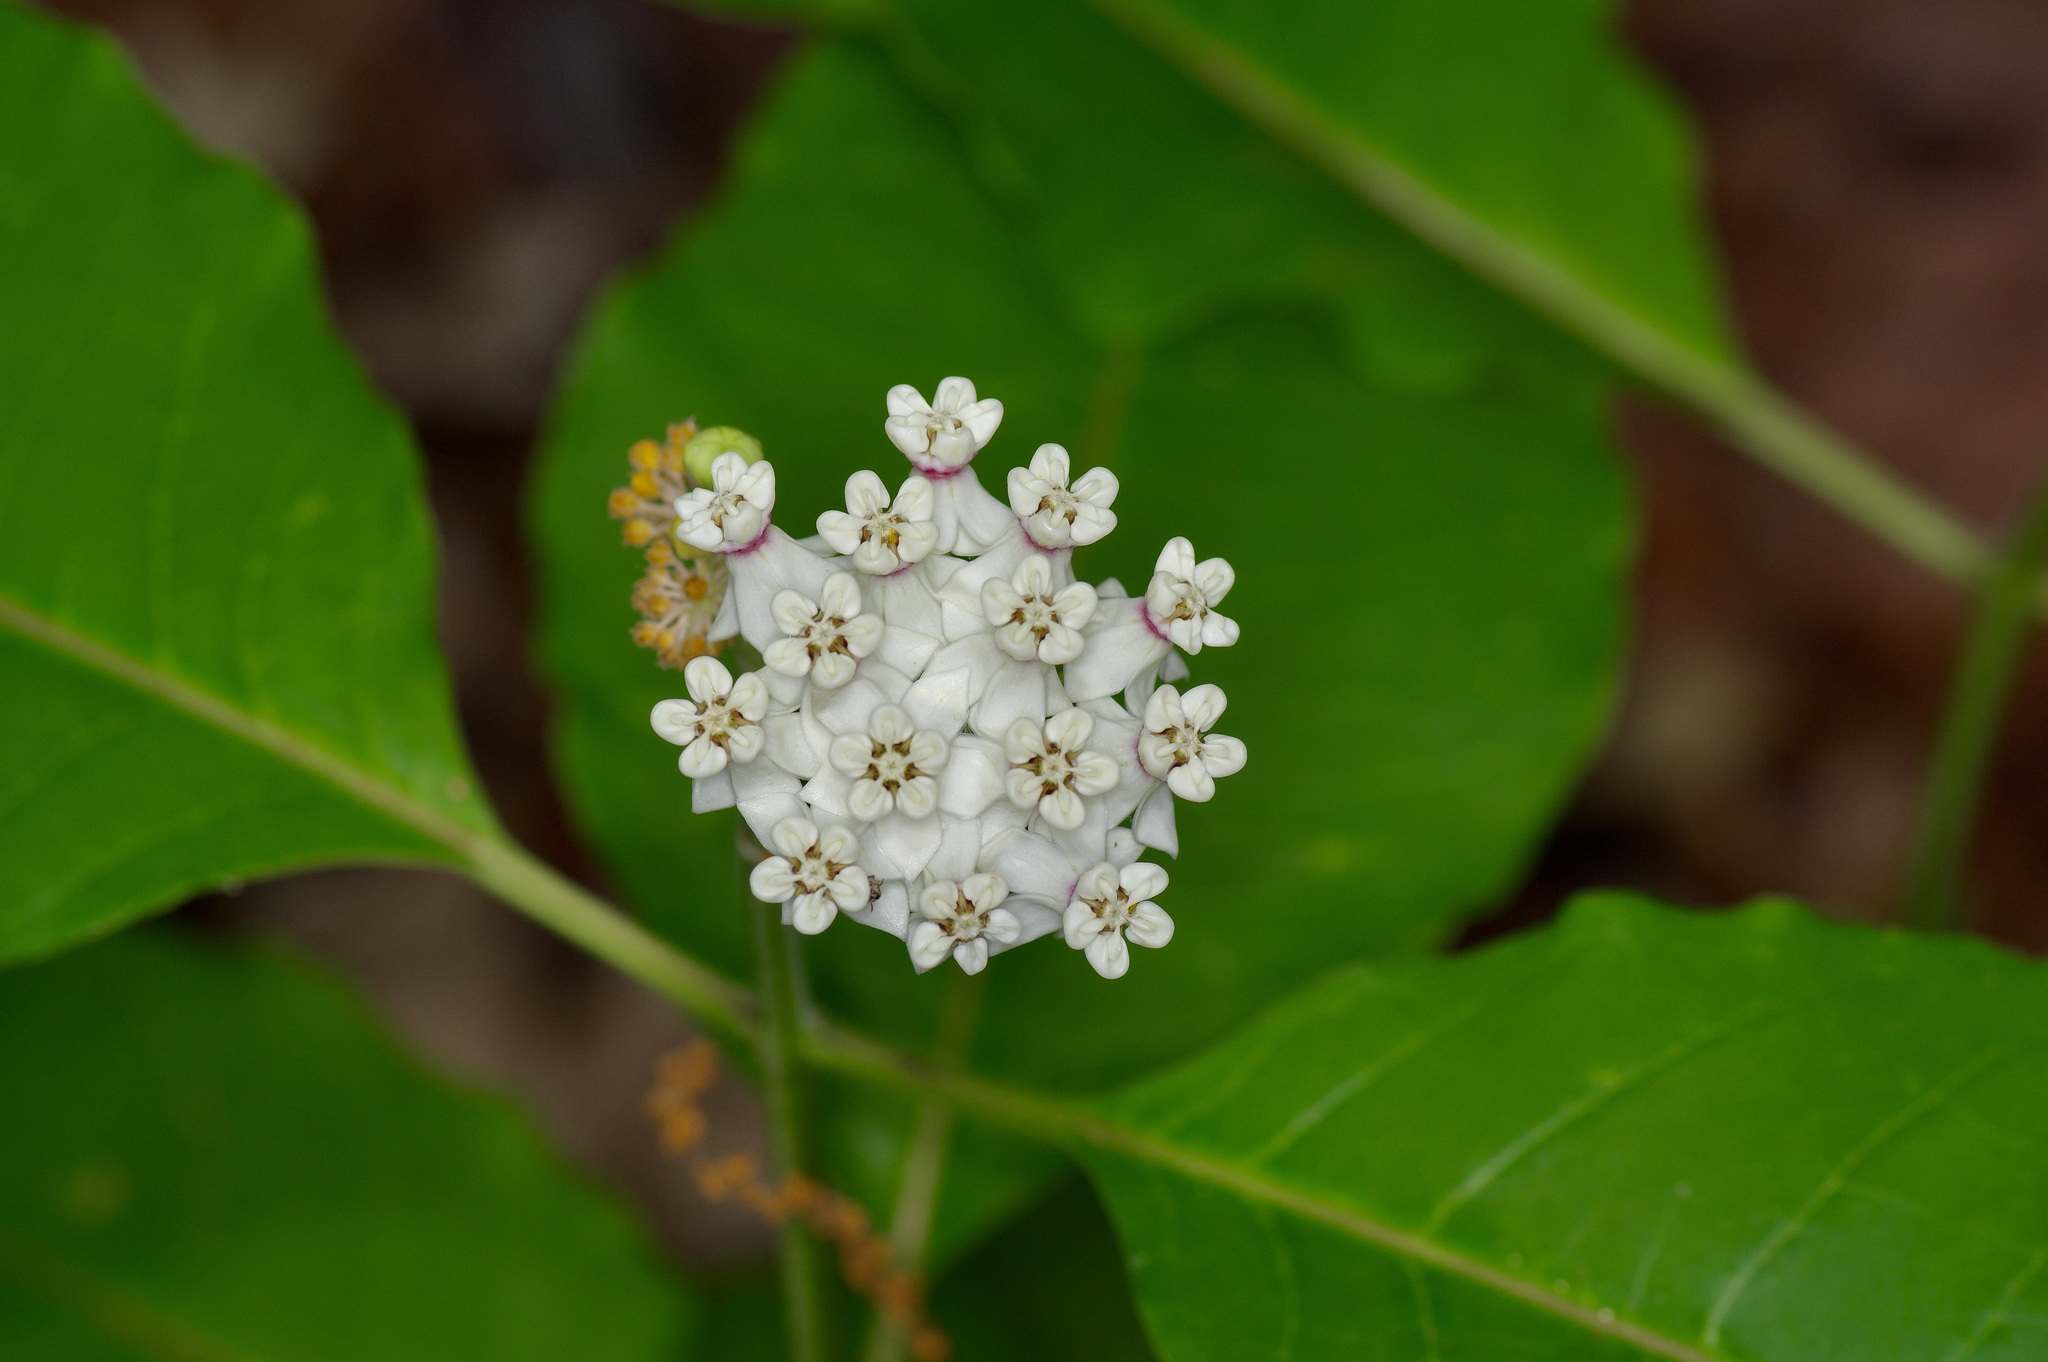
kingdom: Plantae
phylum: Tracheophyta
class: Magnoliopsida
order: Gentianales
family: Apocynaceae
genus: Asclepias
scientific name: Asclepias variegata
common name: Variegated milkweed
